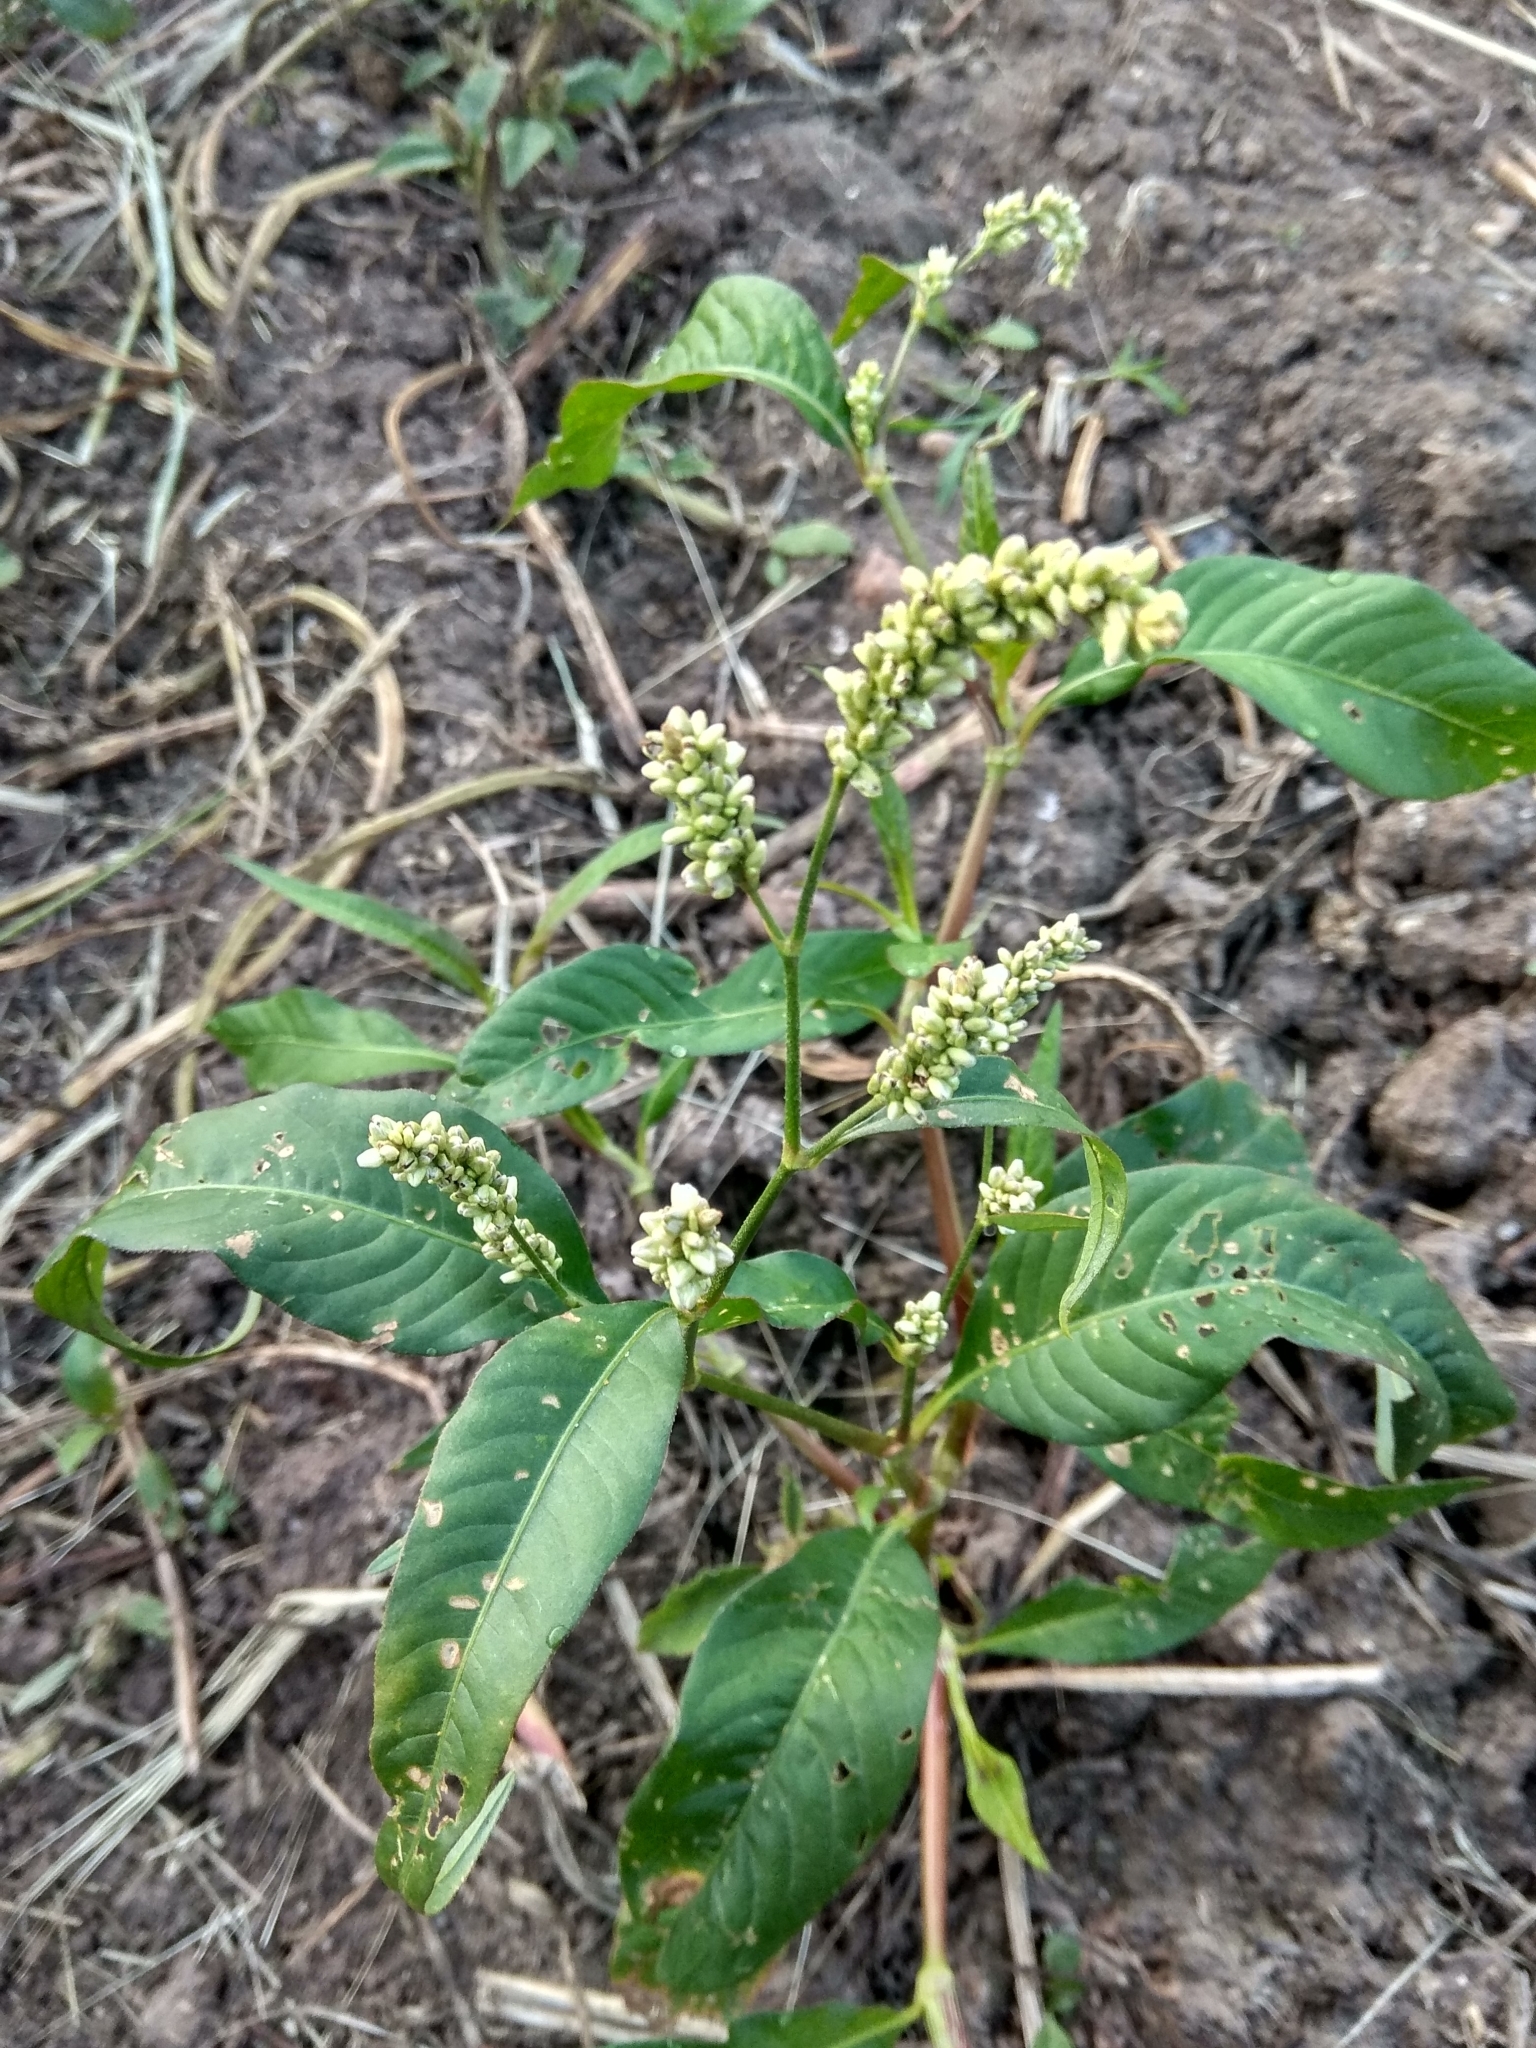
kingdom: Plantae
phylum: Tracheophyta
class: Magnoliopsida
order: Caryophyllales
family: Polygonaceae
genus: Persicaria
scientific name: Persicaria lapathifolia
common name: Curlytop knotweed
